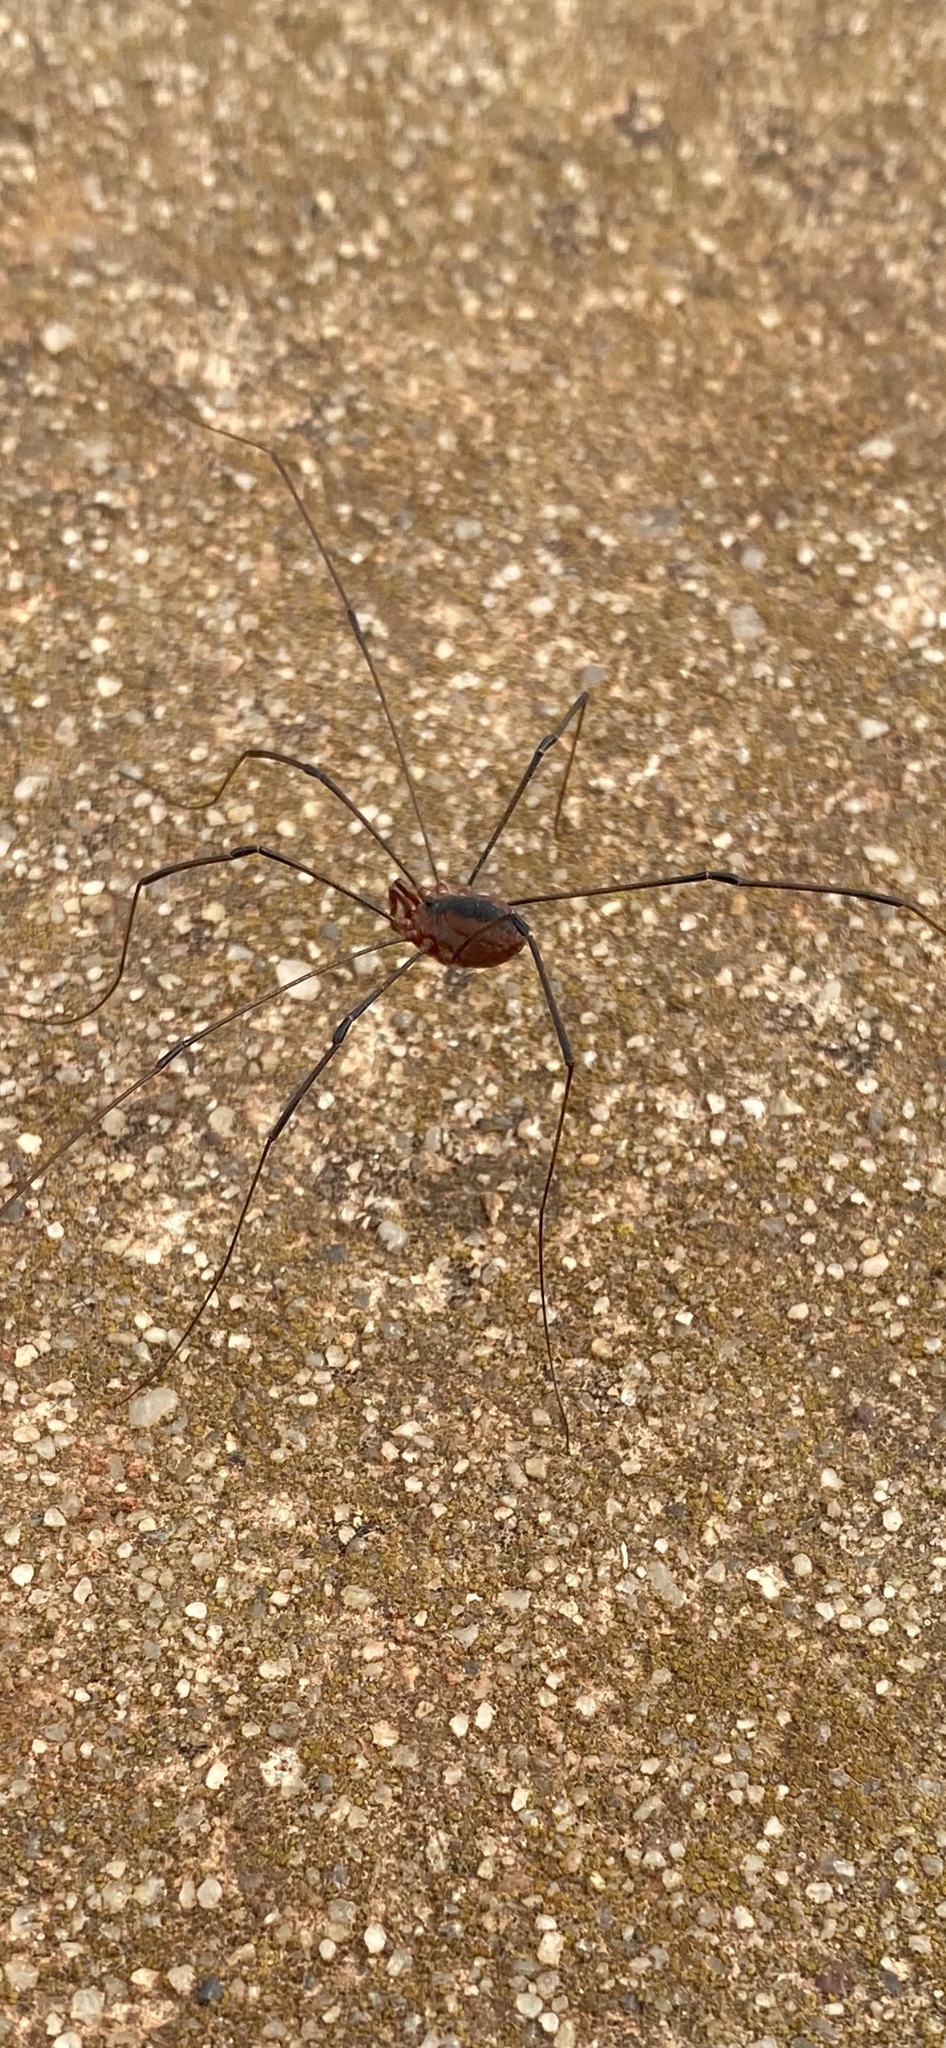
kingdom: Animalia
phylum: Arthropoda
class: Arachnida
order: Opiliones
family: Sclerosomatidae
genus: Leiobunum
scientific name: Leiobunum vittatum
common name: Eastern harvestman
